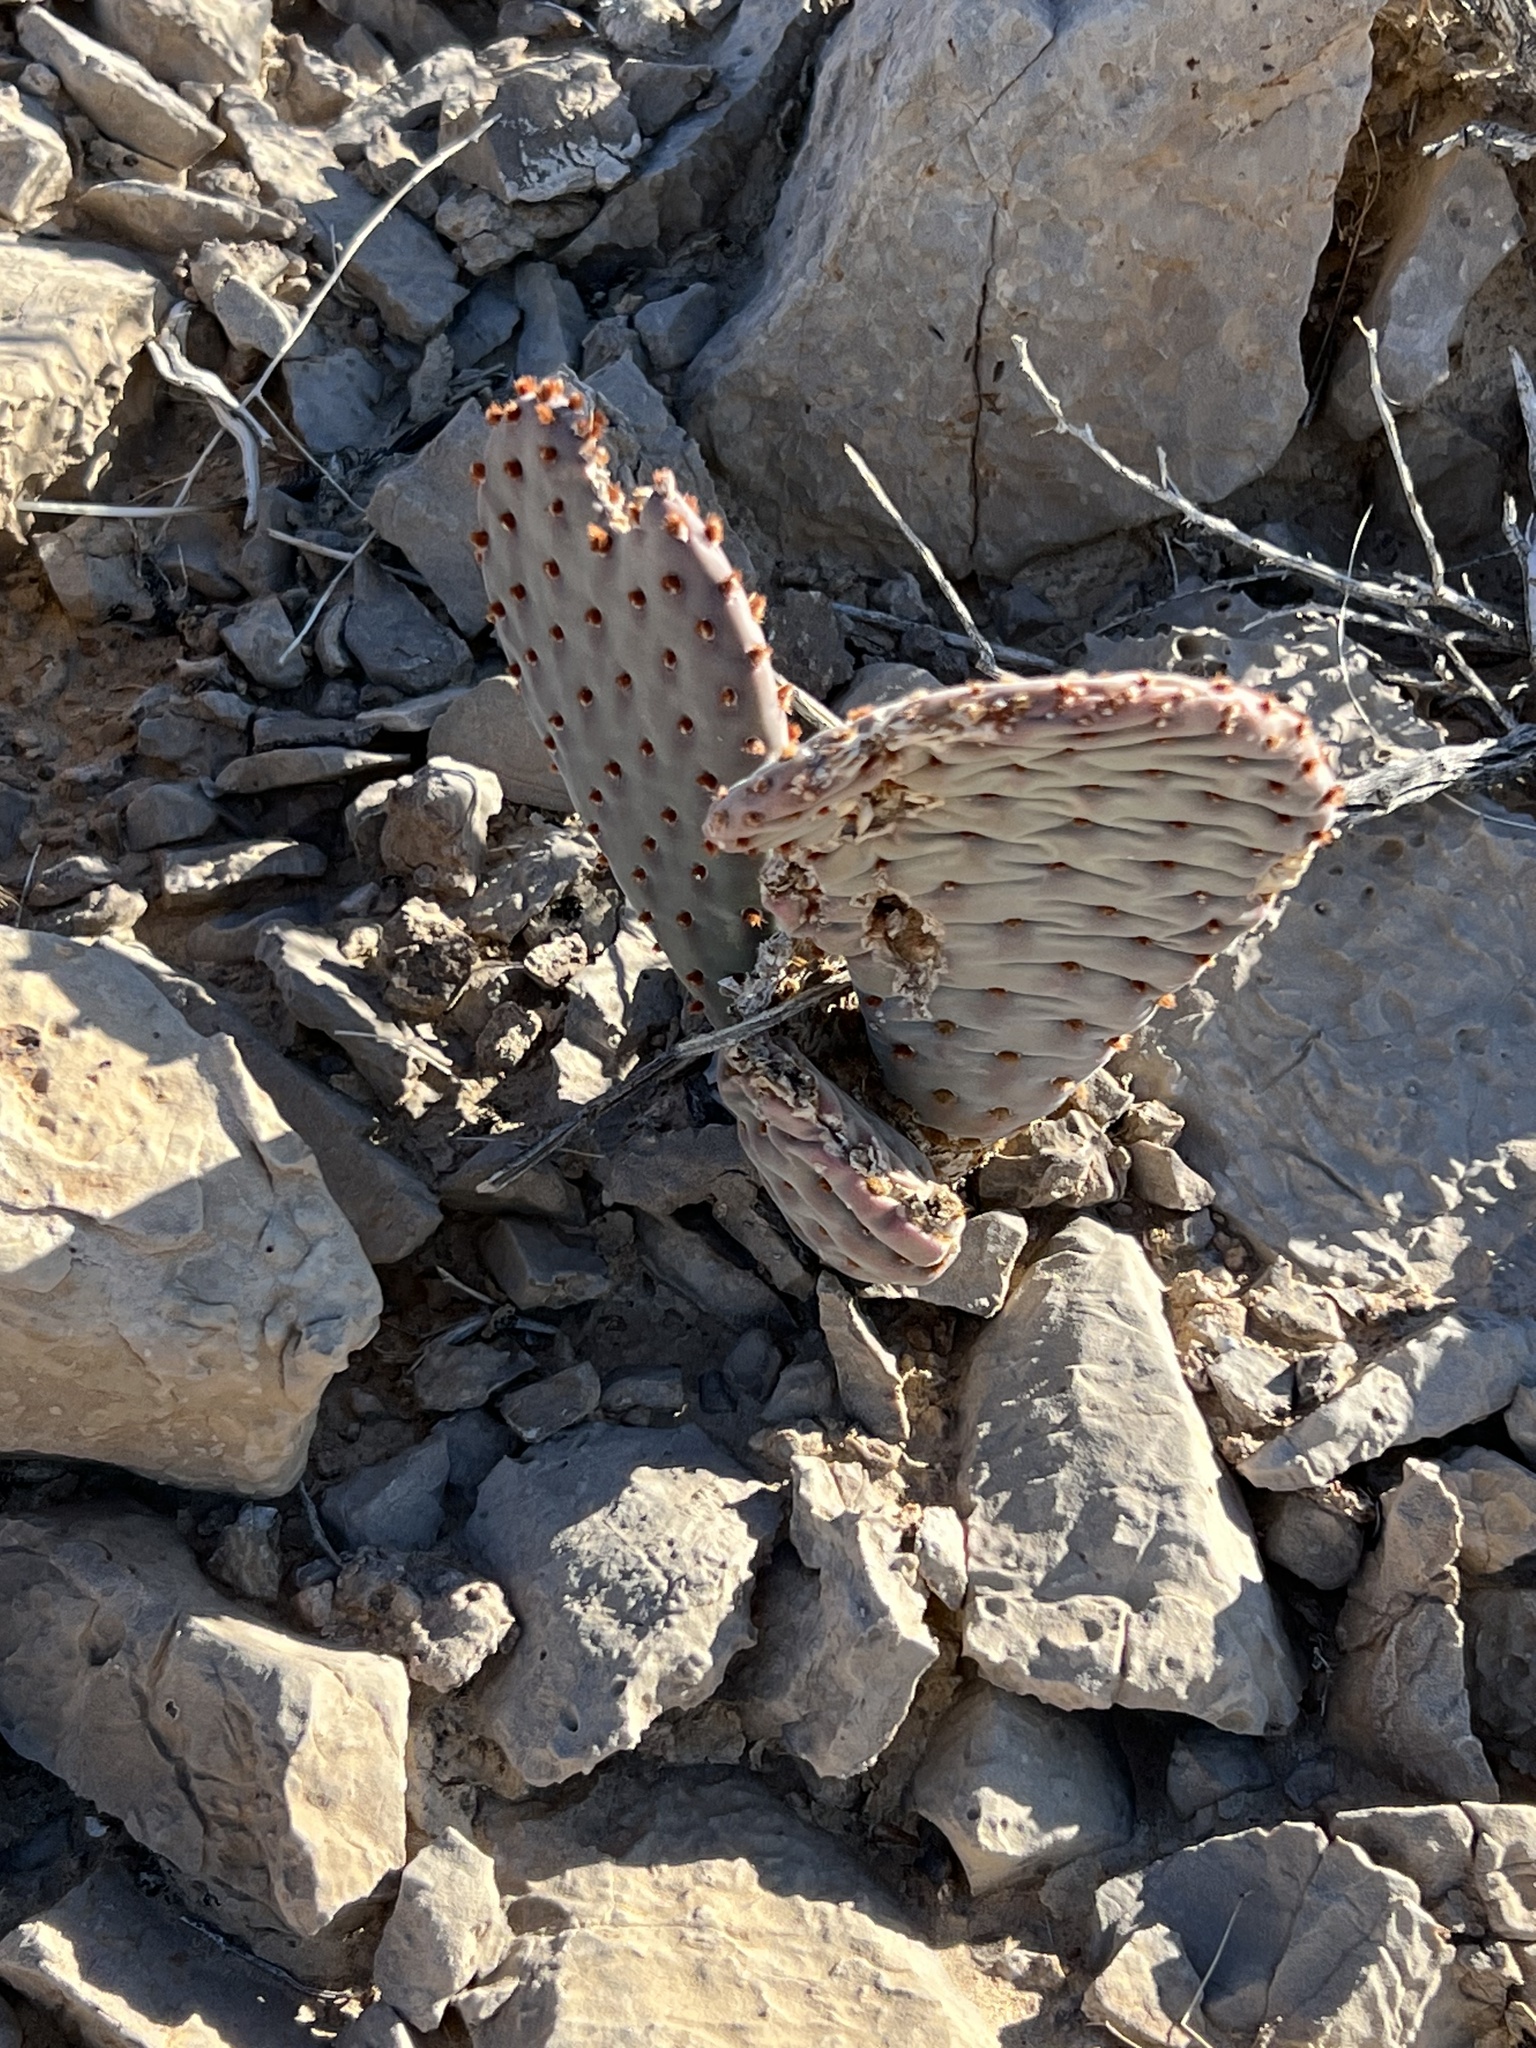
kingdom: Plantae
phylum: Tracheophyta
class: Magnoliopsida
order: Caryophyllales
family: Cactaceae
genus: Opuntia
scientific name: Opuntia basilaris
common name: Beavertail prickly-pear
